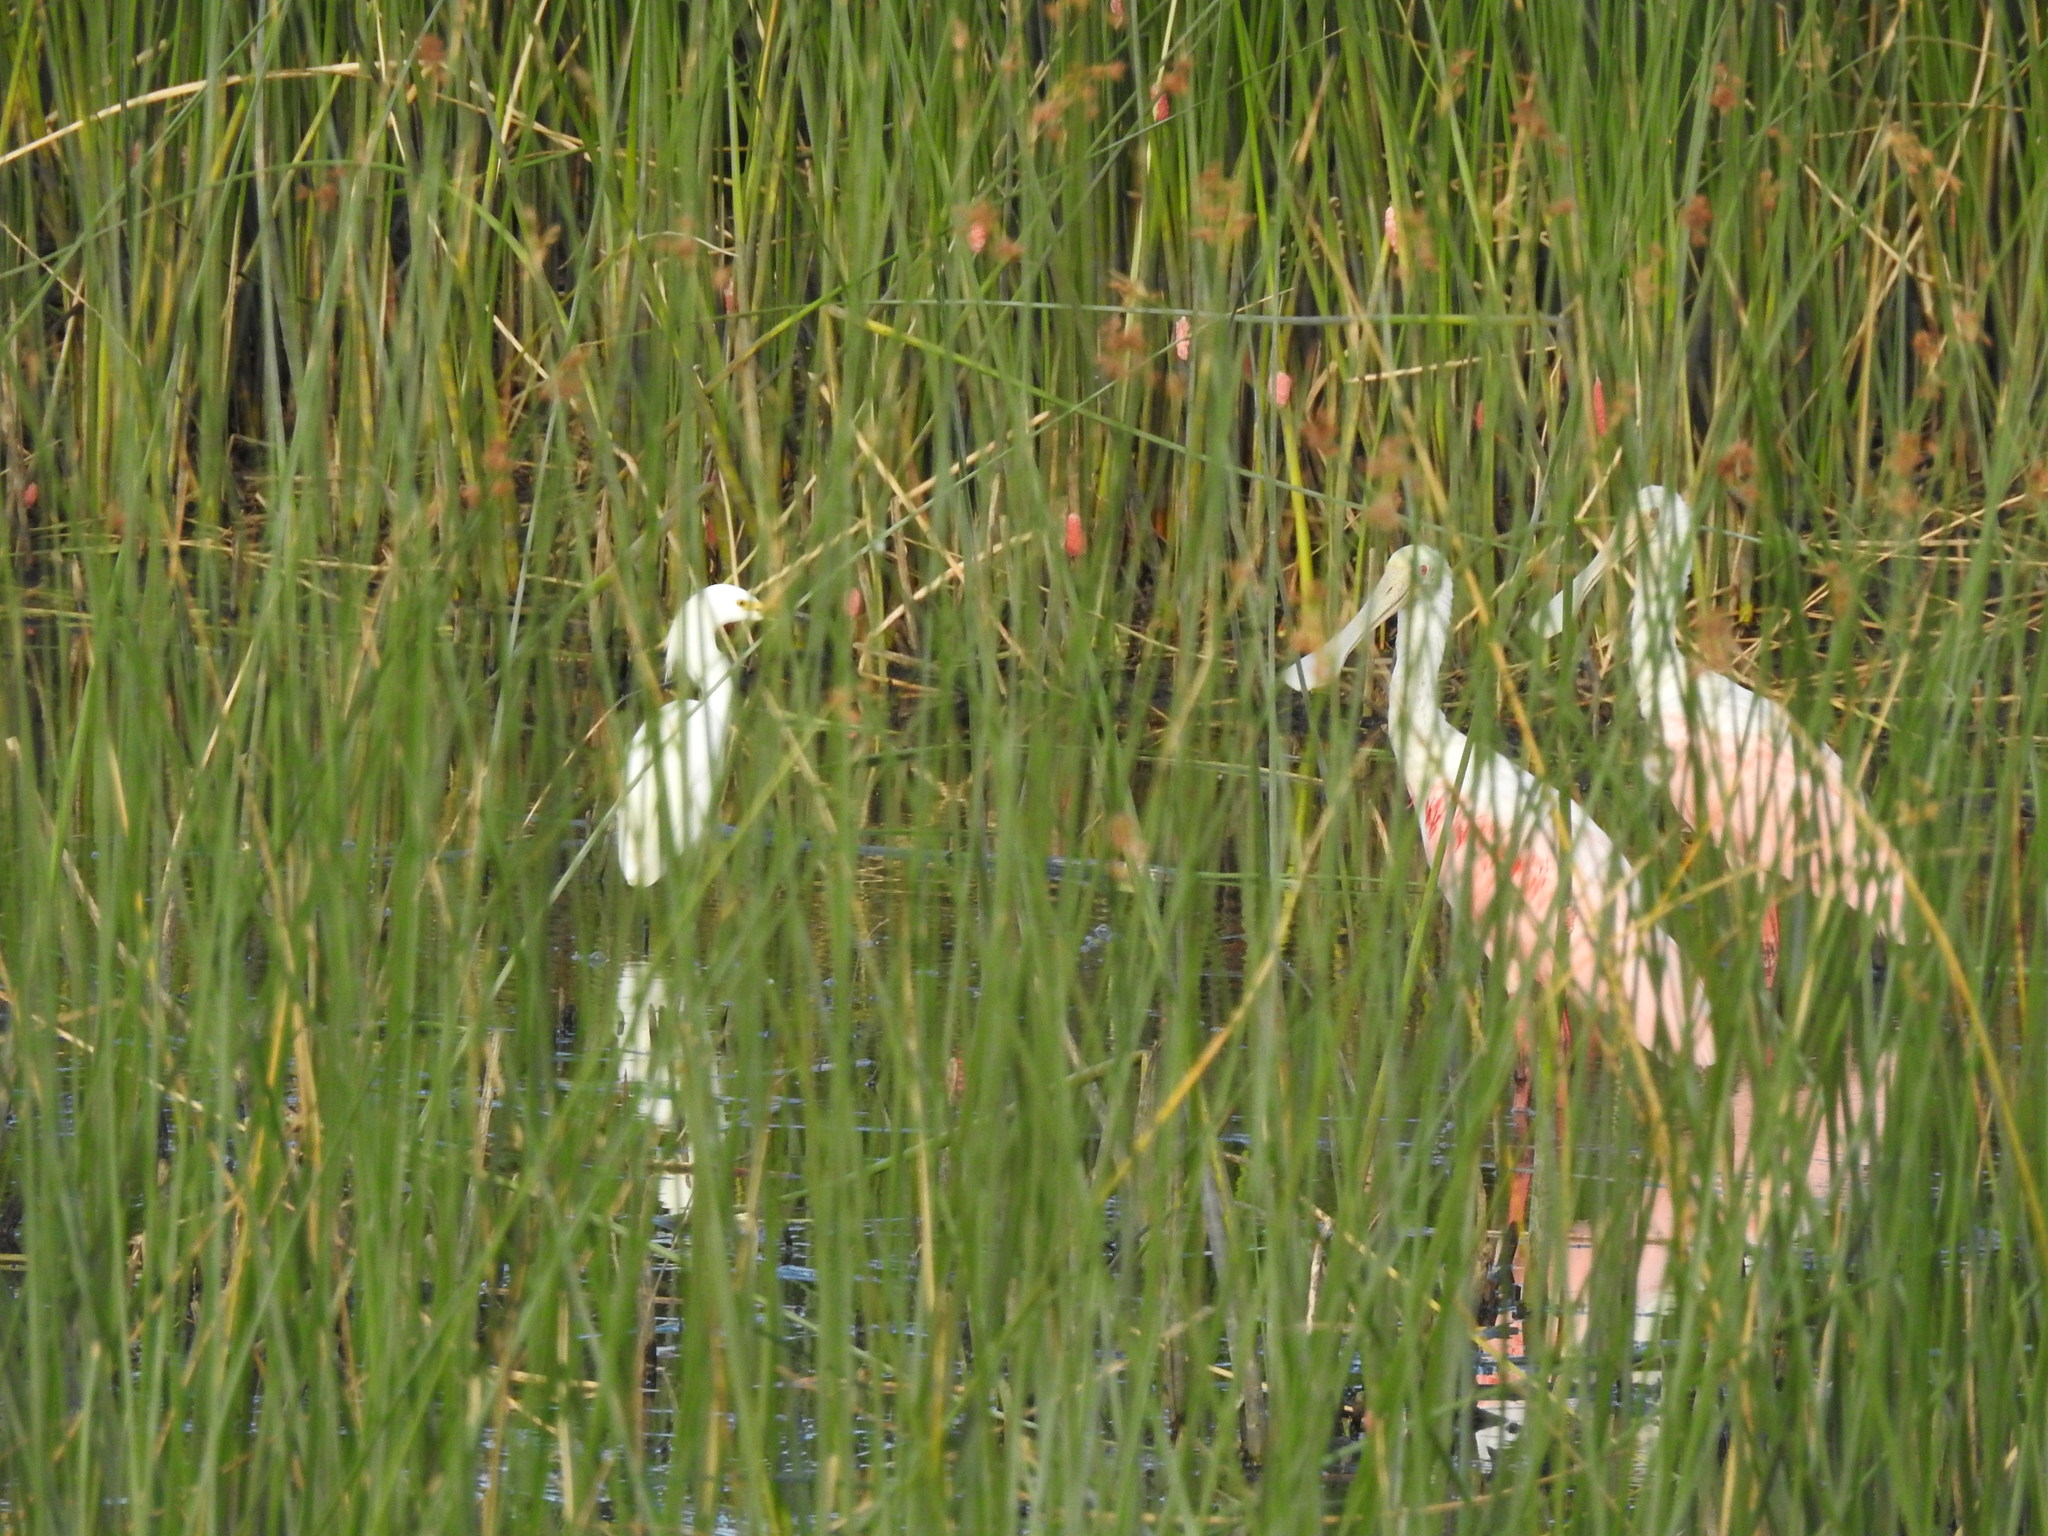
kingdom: Animalia
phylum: Chordata
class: Aves
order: Pelecaniformes
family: Ardeidae
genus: Egretta
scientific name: Egretta thula
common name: Snowy egret
